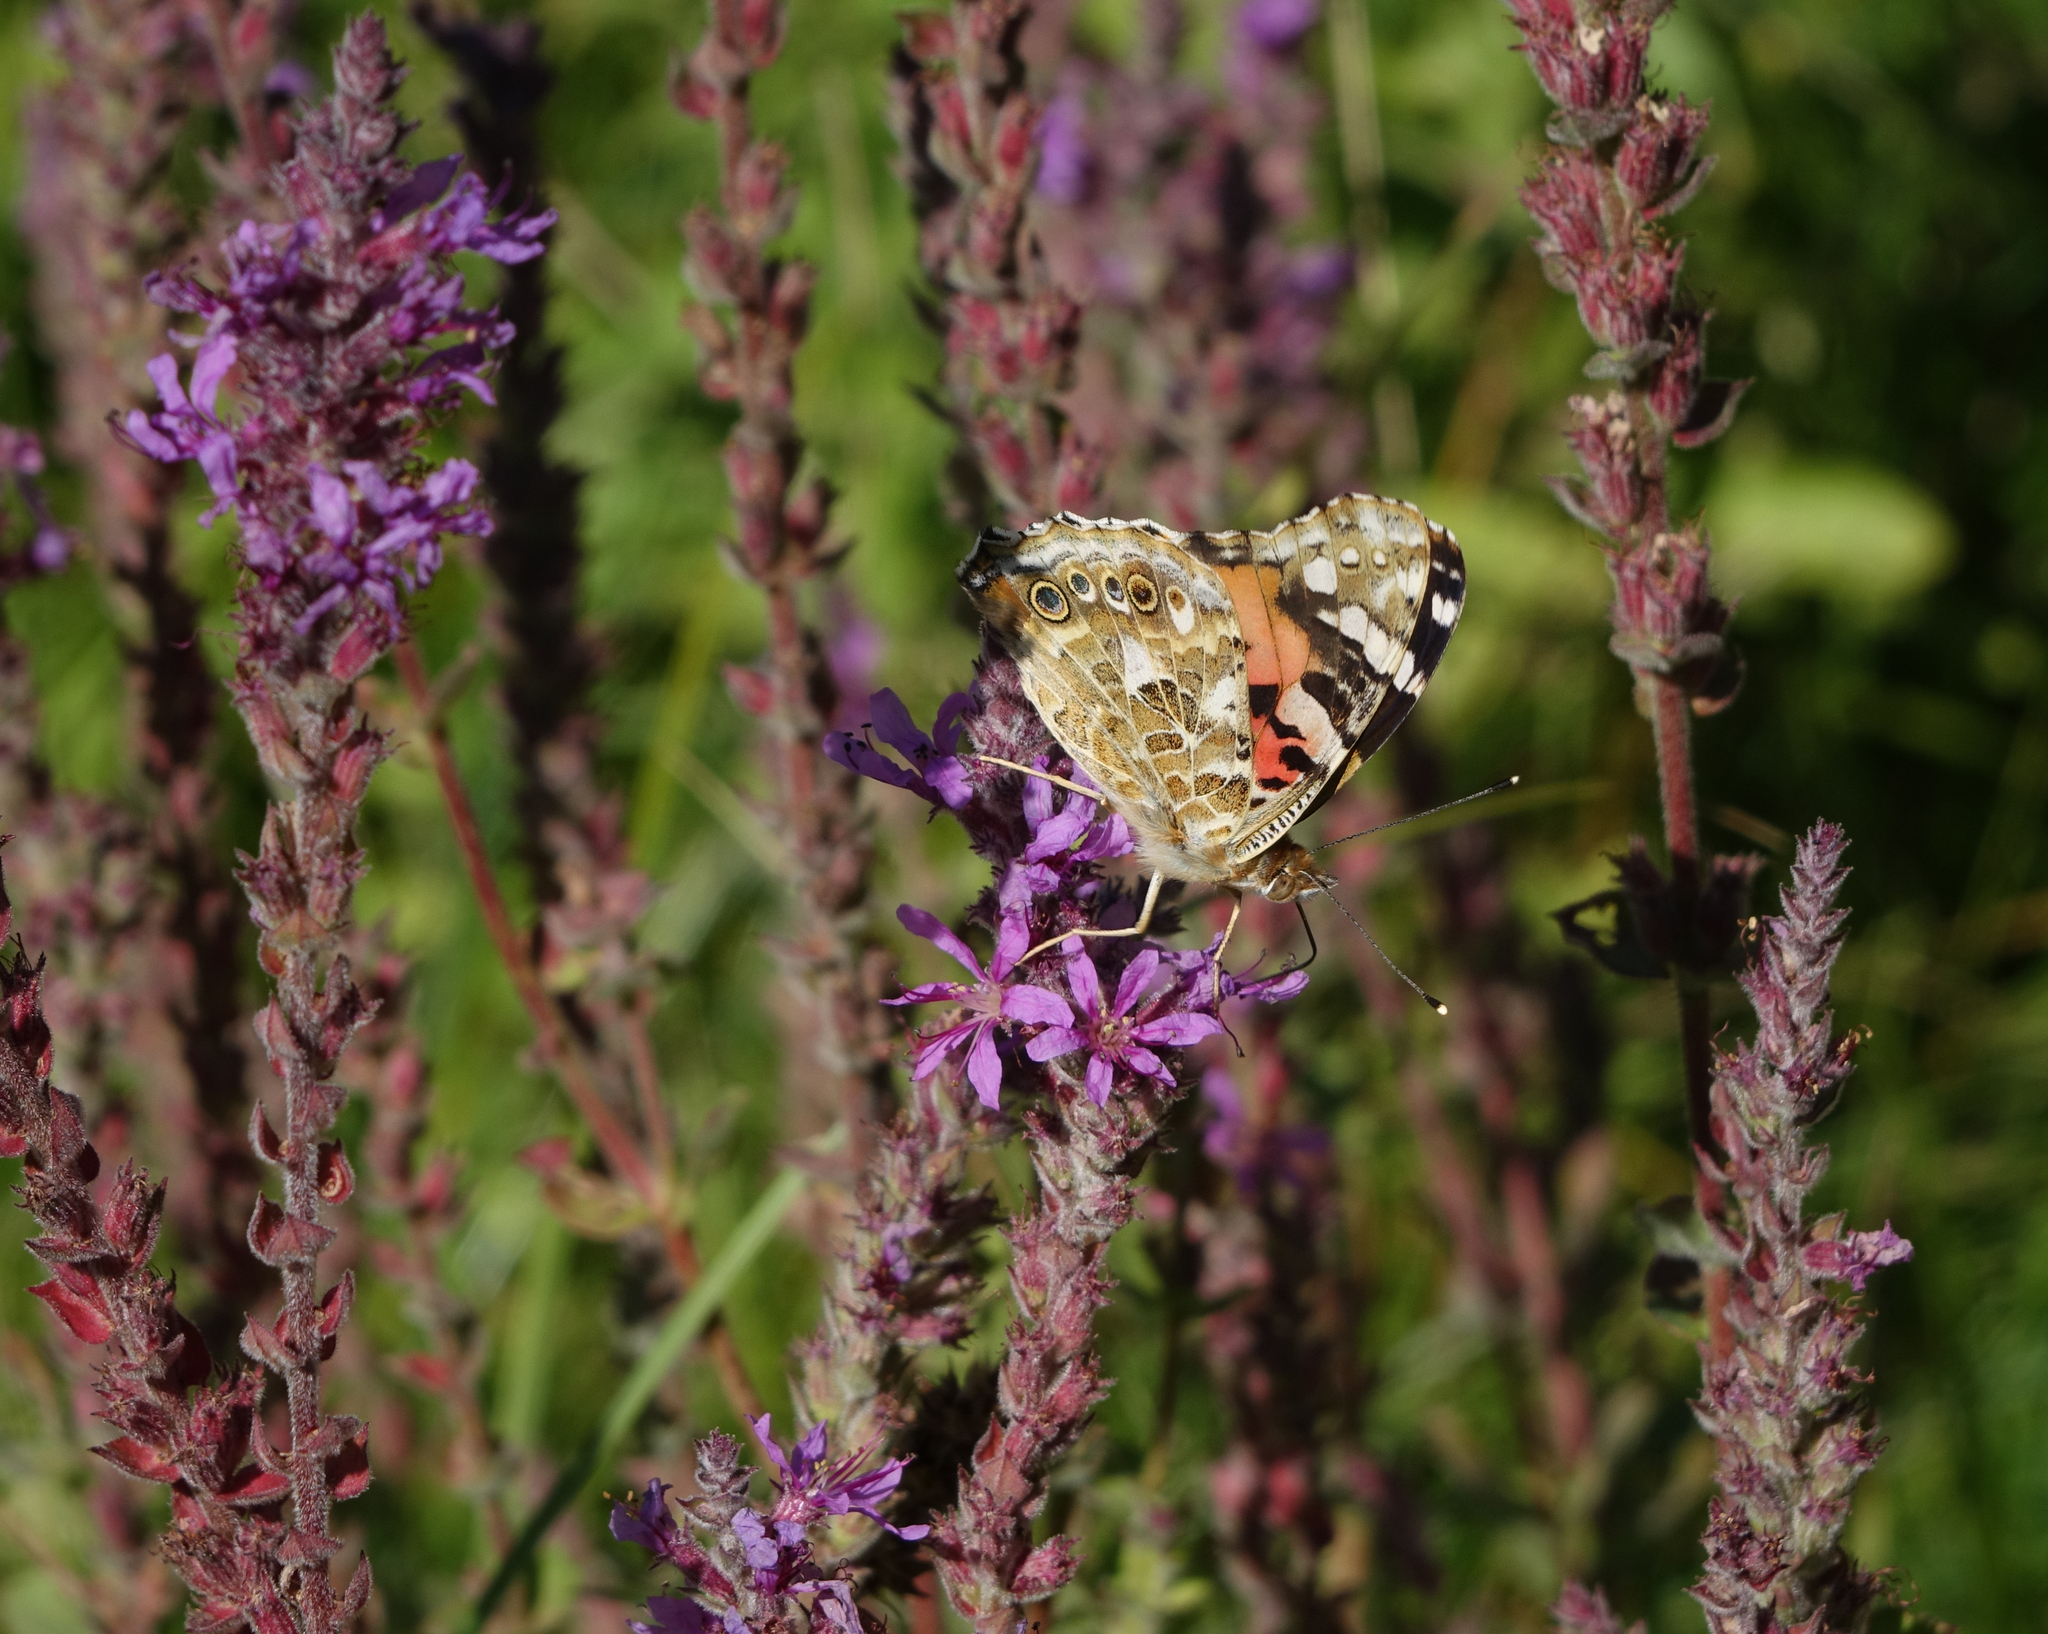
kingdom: Animalia
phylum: Arthropoda
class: Insecta
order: Lepidoptera
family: Nymphalidae
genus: Vanessa
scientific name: Vanessa cardui
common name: Painted lady
